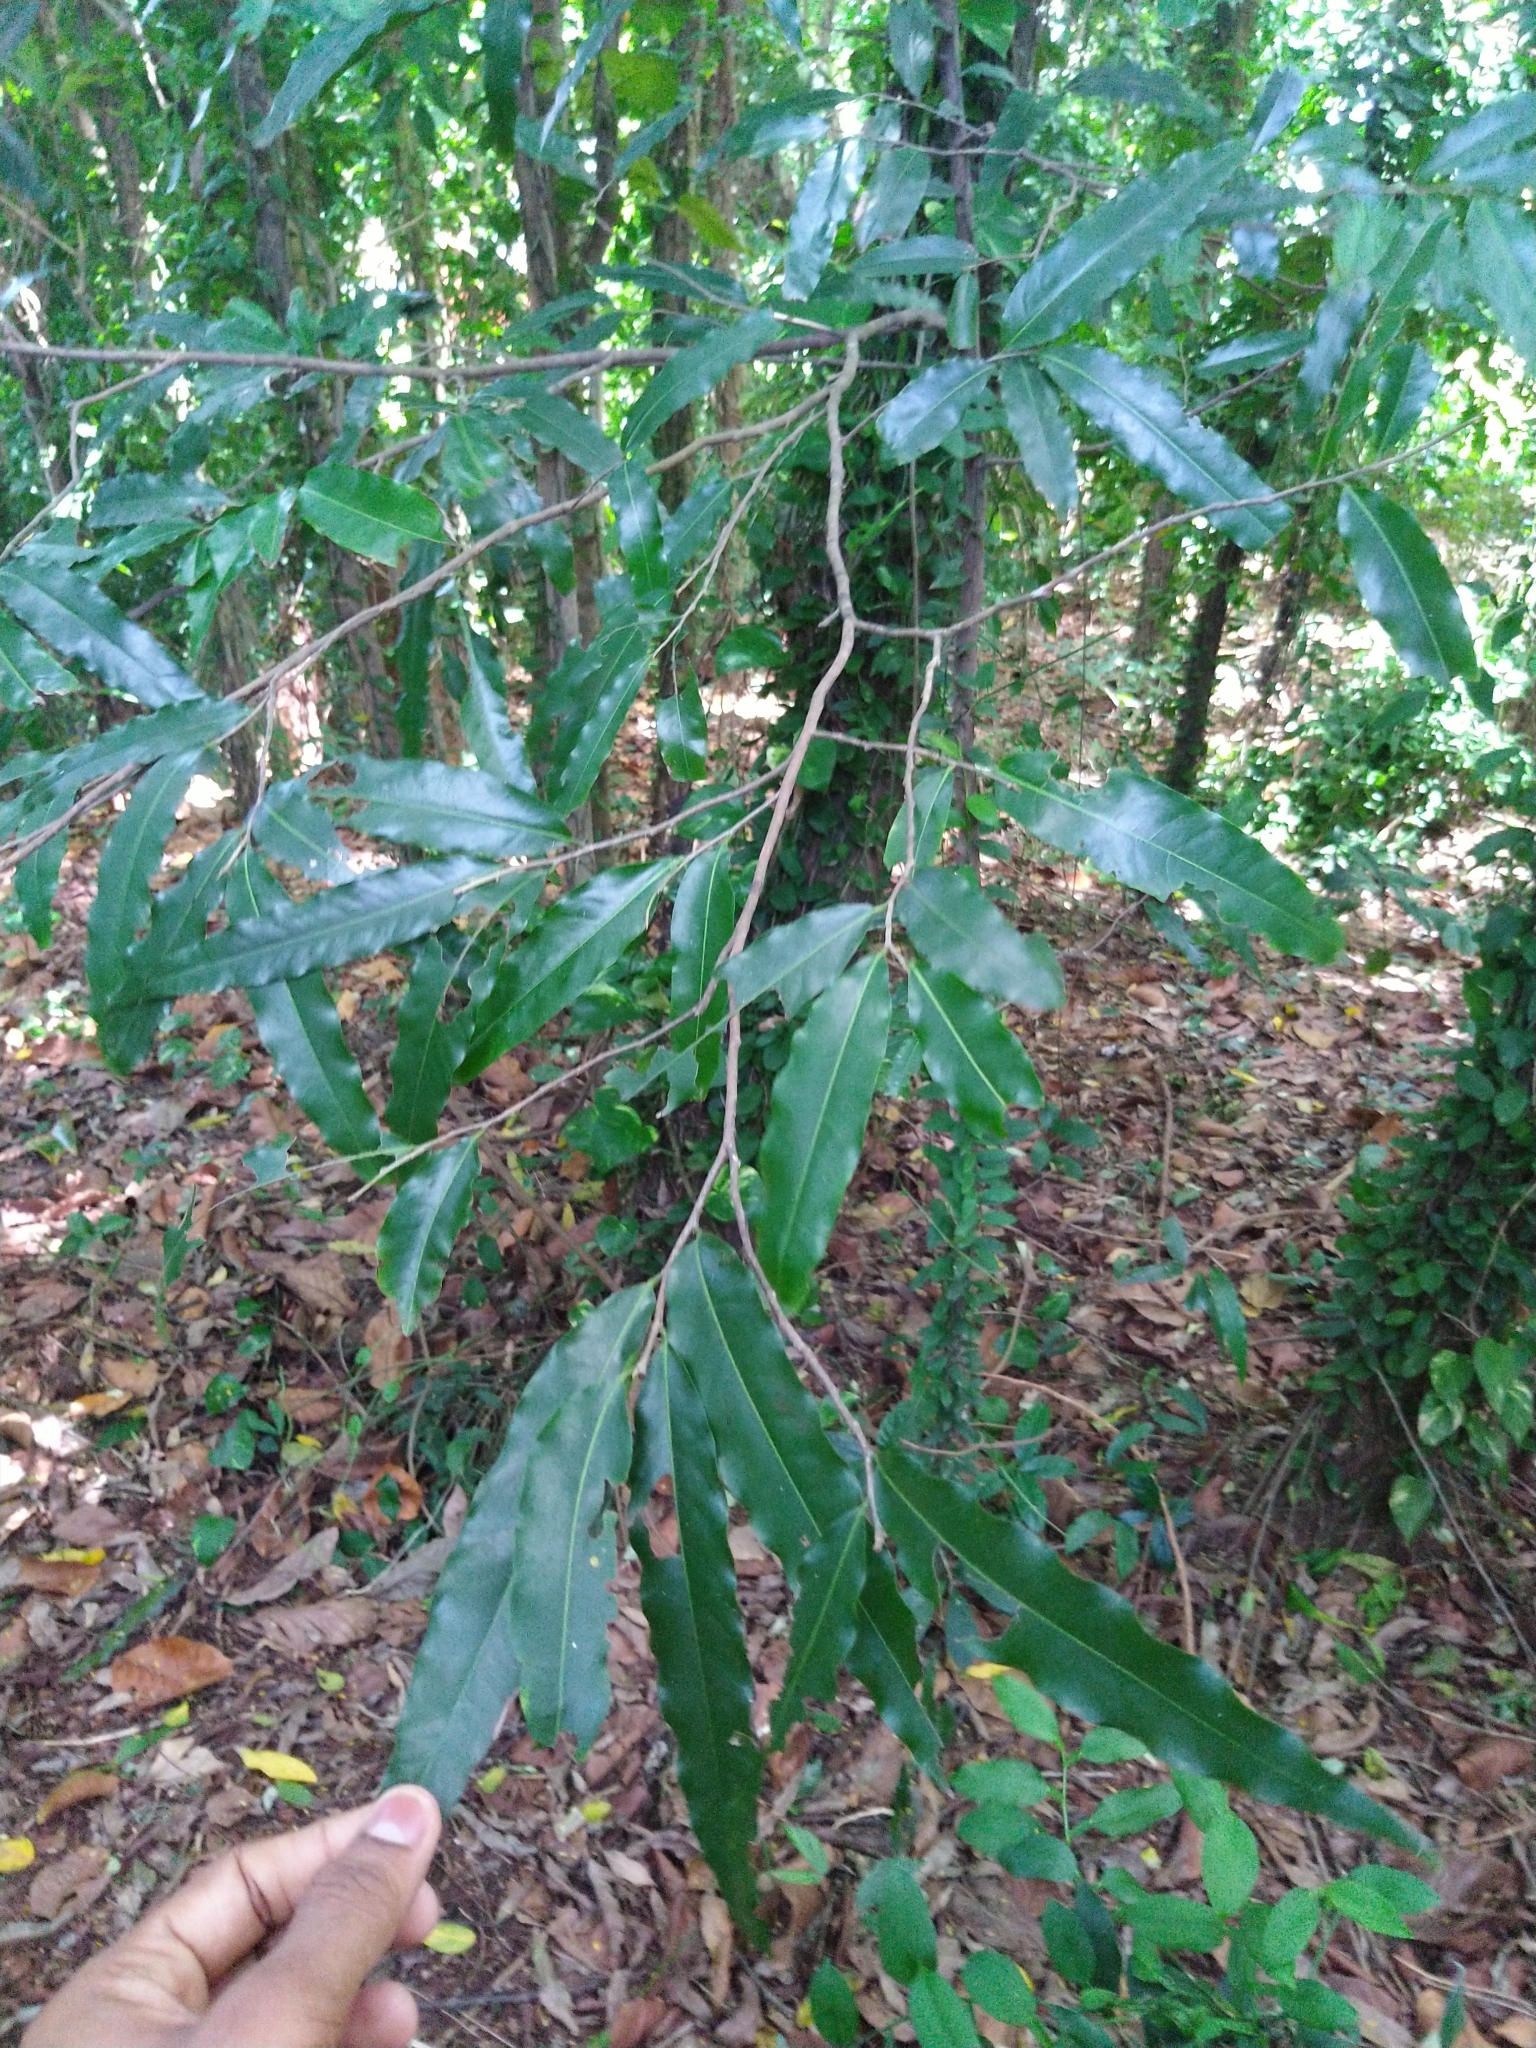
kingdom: Plantae
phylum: Tracheophyta
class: Magnoliopsida
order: Magnoliales
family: Annonaceae
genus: Polyalthia
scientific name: Polyalthia longifolia
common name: Cemetery-tree
